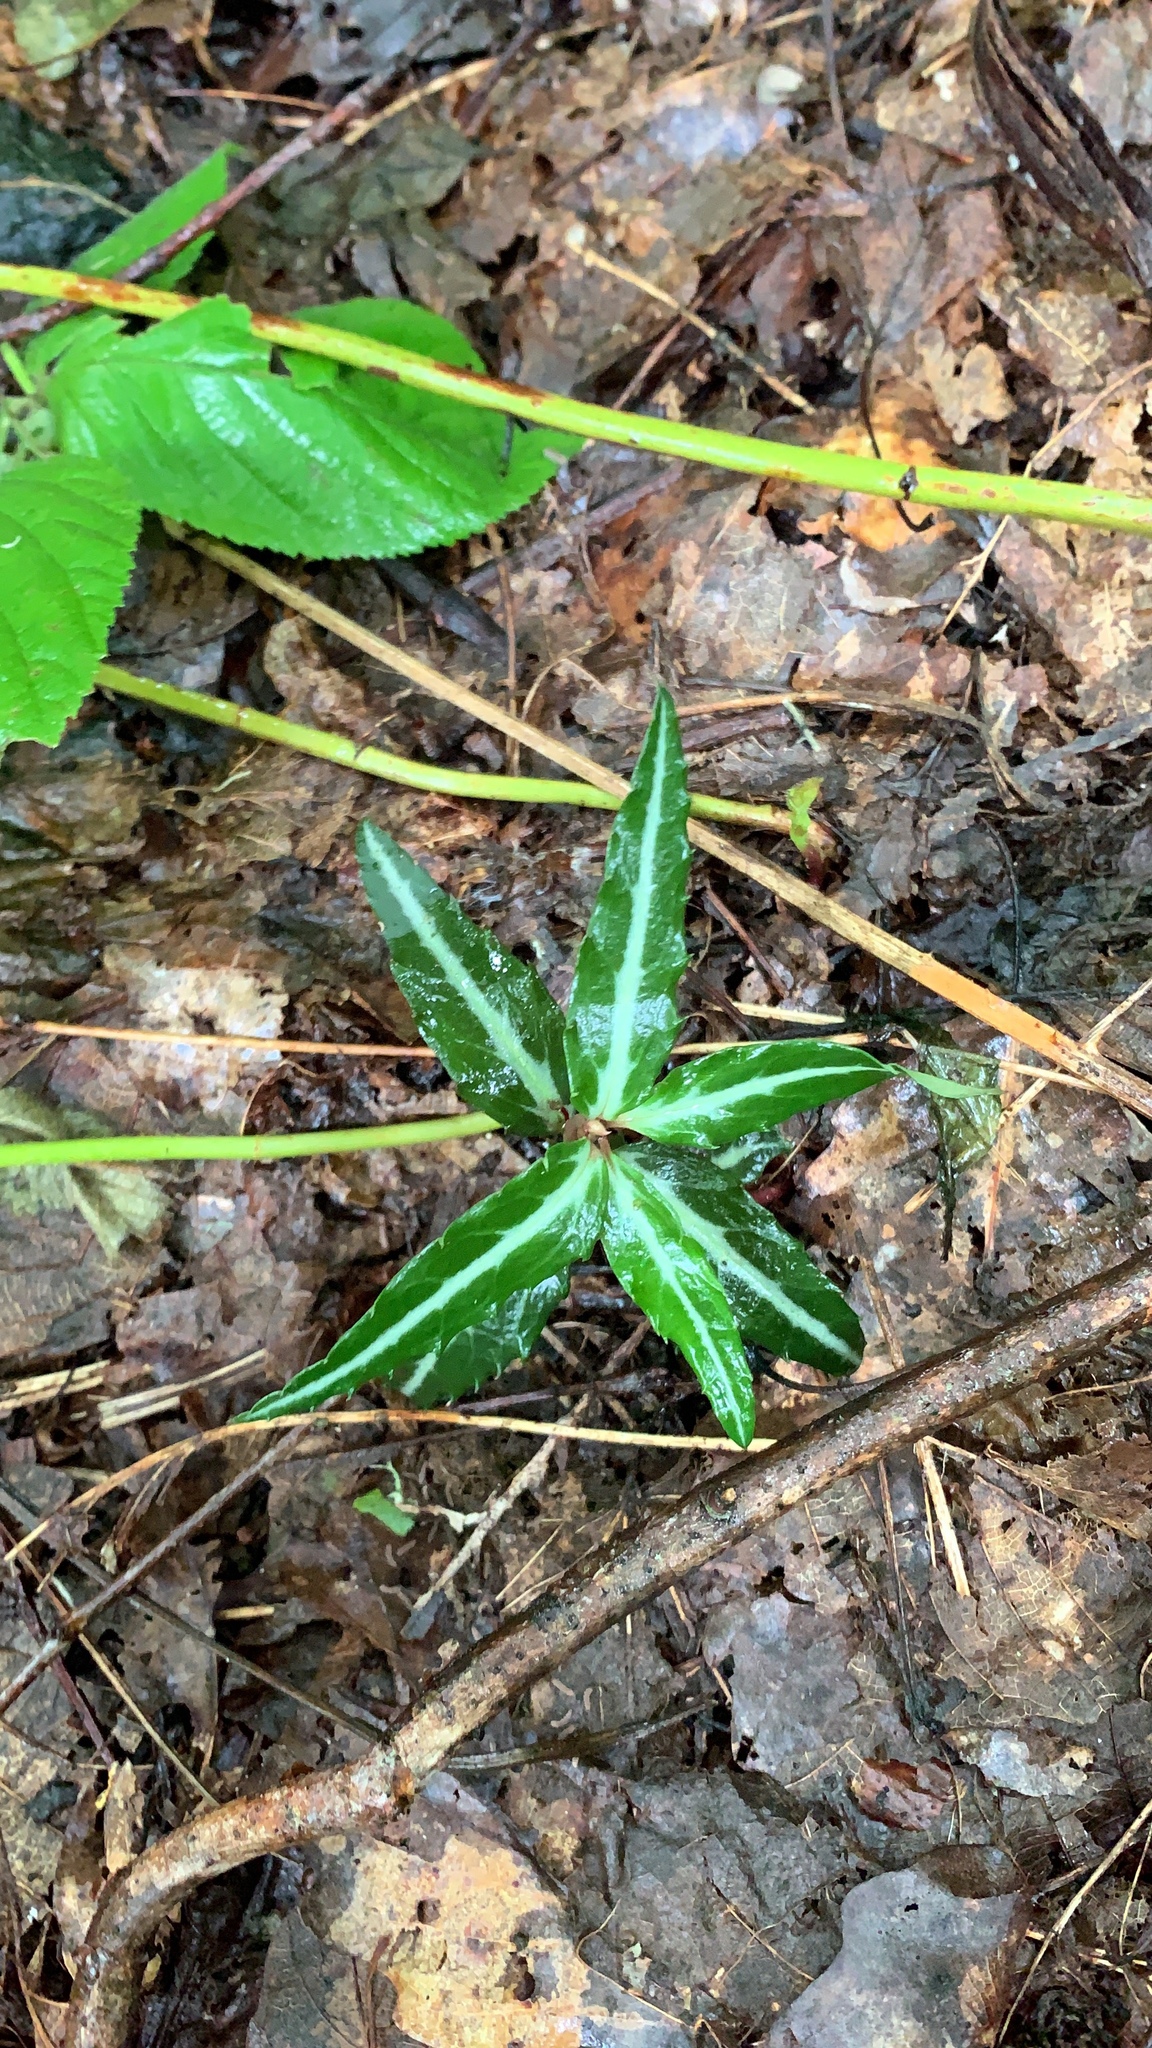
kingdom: Plantae
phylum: Tracheophyta
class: Magnoliopsida
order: Ericales
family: Ericaceae
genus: Chimaphila
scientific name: Chimaphila maculata
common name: Spotted pipsissewa
